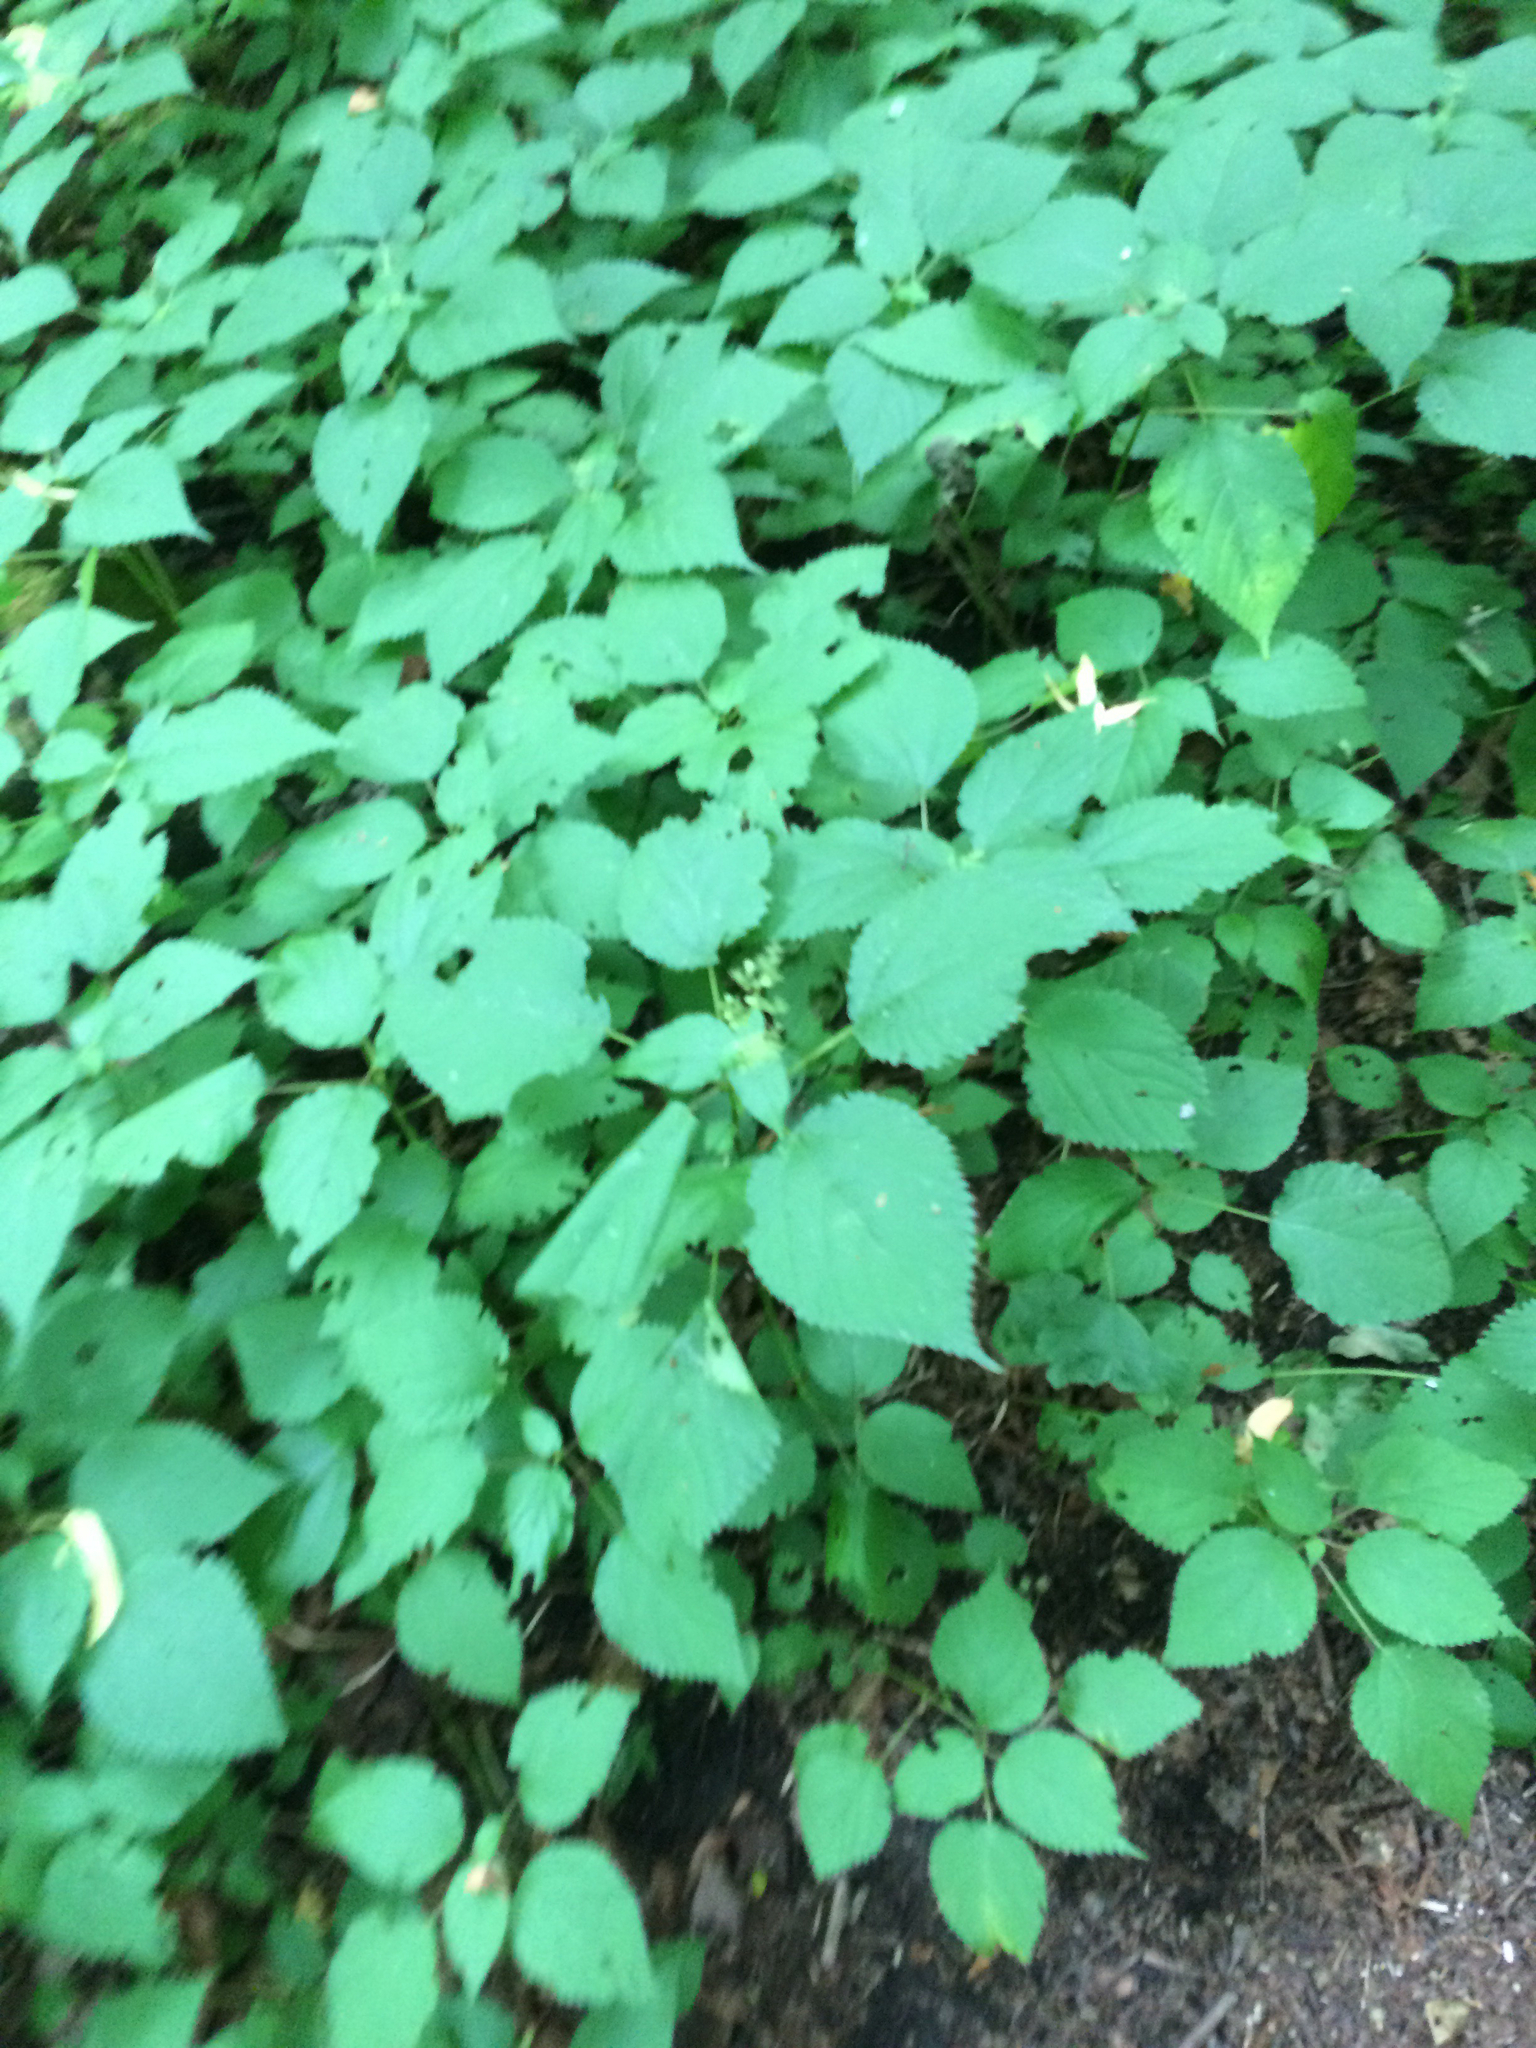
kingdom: Plantae
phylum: Tracheophyta
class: Magnoliopsida
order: Rosales
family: Urticaceae
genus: Laportea
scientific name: Laportea canadensis
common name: Canada nettle
